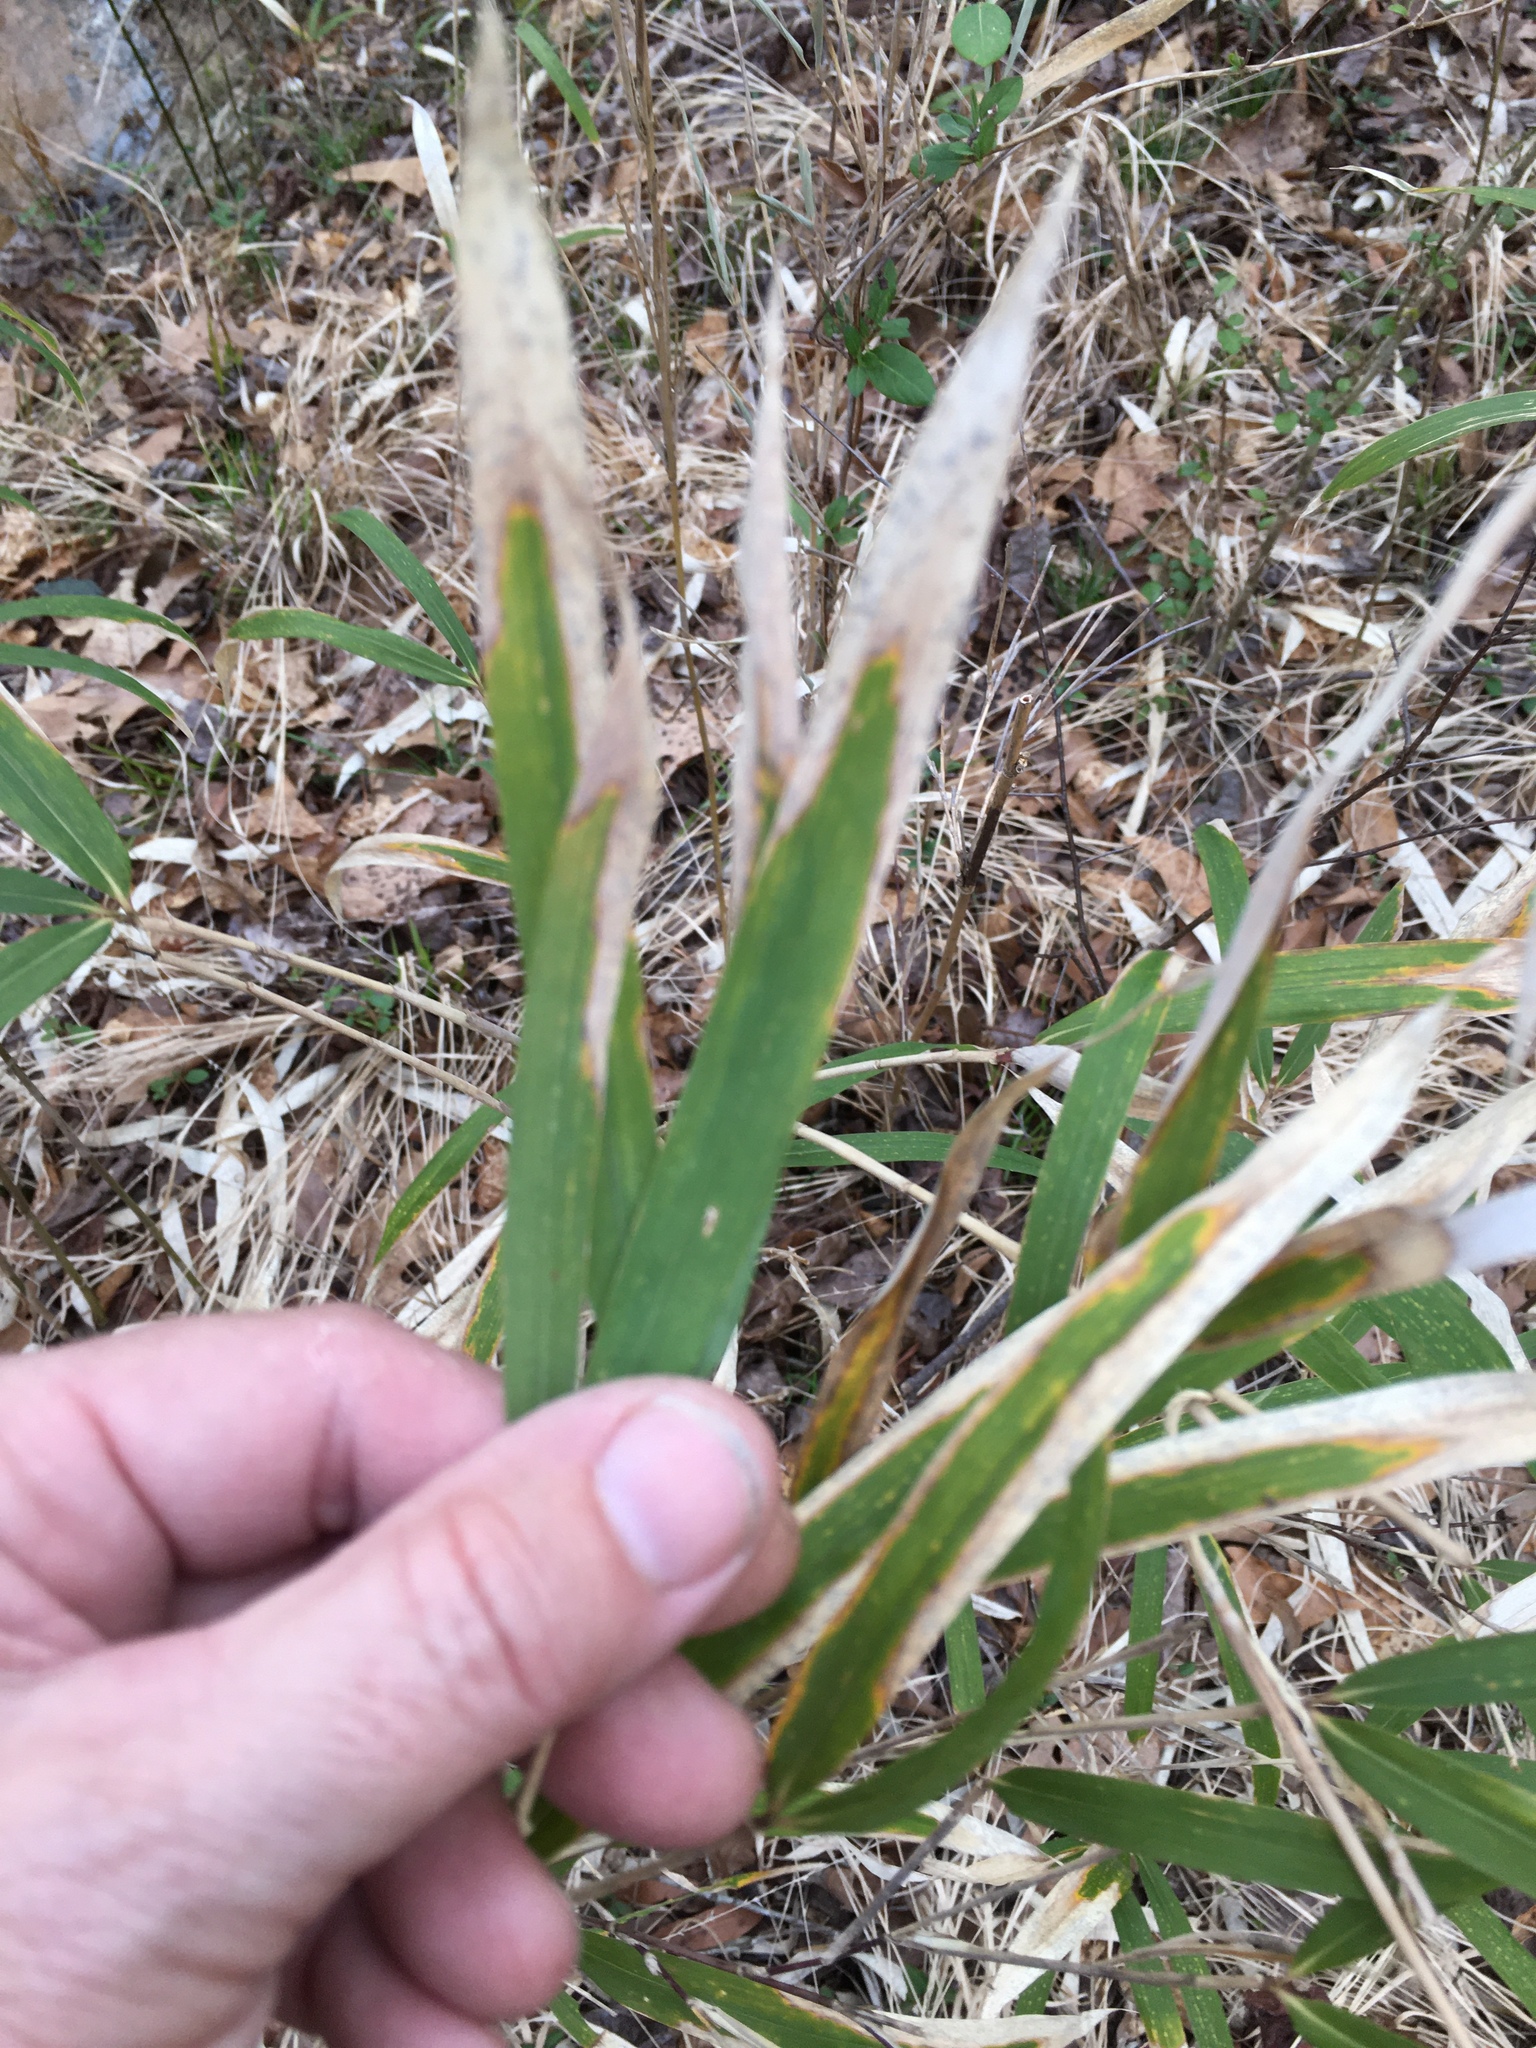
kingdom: Plantae
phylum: Tracheophyta
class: Liliopsida
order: Poales
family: Poaceae
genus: Arundinaria
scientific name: Arundinaria tecta
